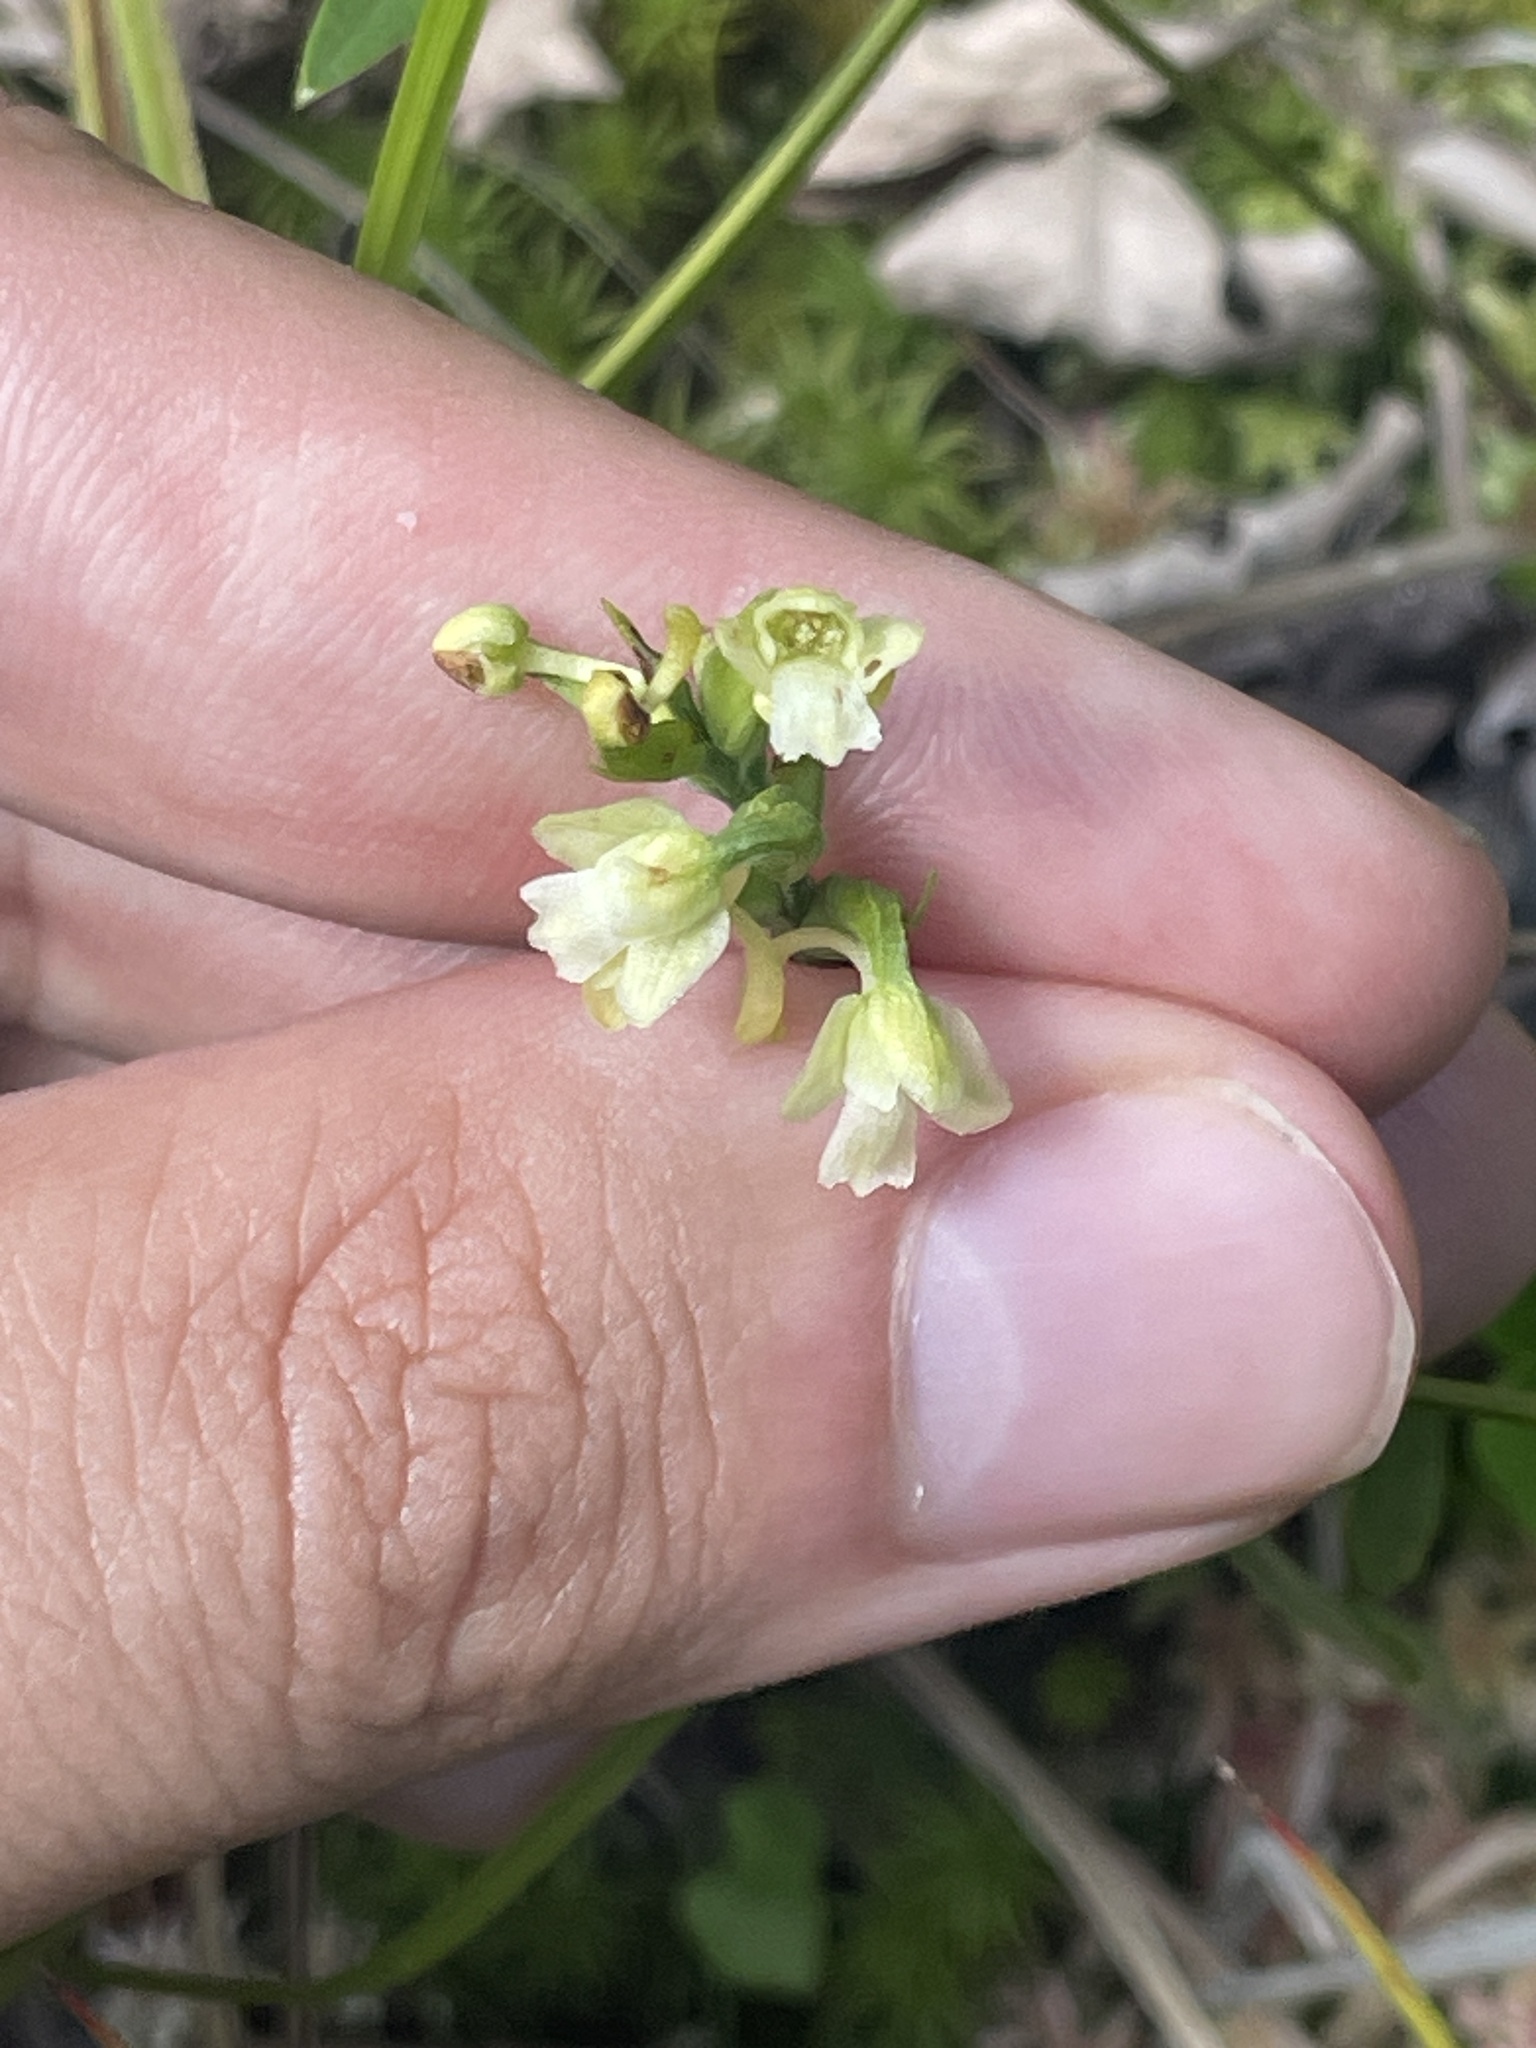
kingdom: Plantae
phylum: Tracheophyta
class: Liliopsida
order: Asparagales
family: Orchidaceae
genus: Platanthera
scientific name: Platanthera clavellata
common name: Club-spur orchid
